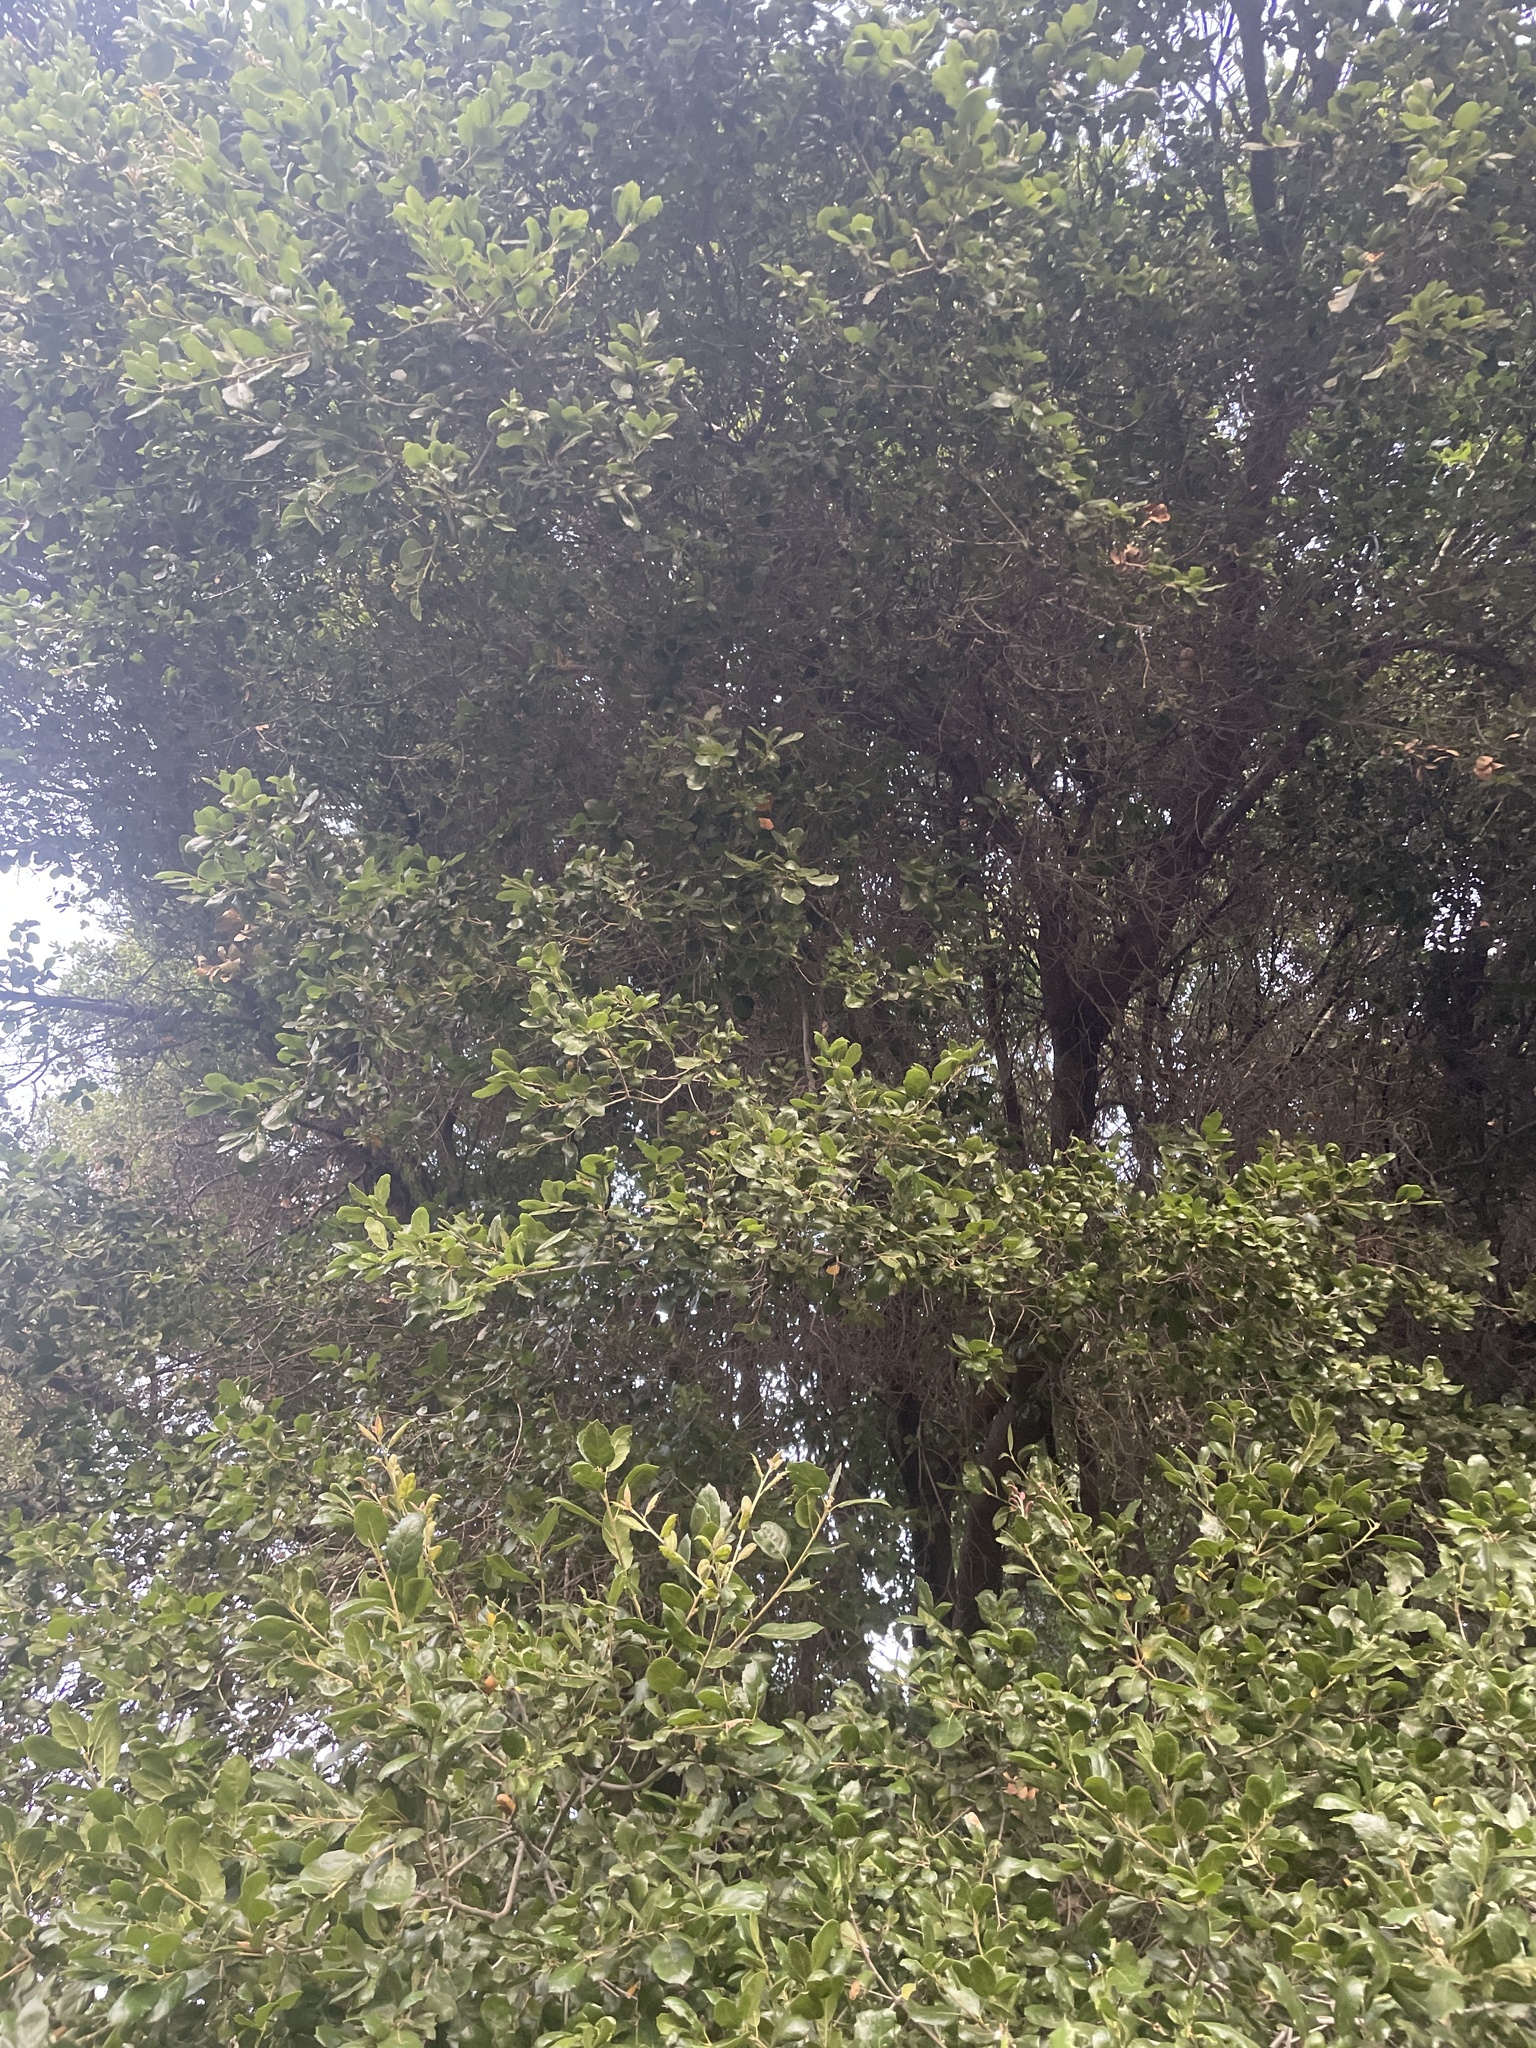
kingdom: Plantae
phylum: Tracheophyta
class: Magnoliopsida
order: Fagales
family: Fagaceae
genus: Quercus
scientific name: Quercus agrifolia
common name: California live oak
